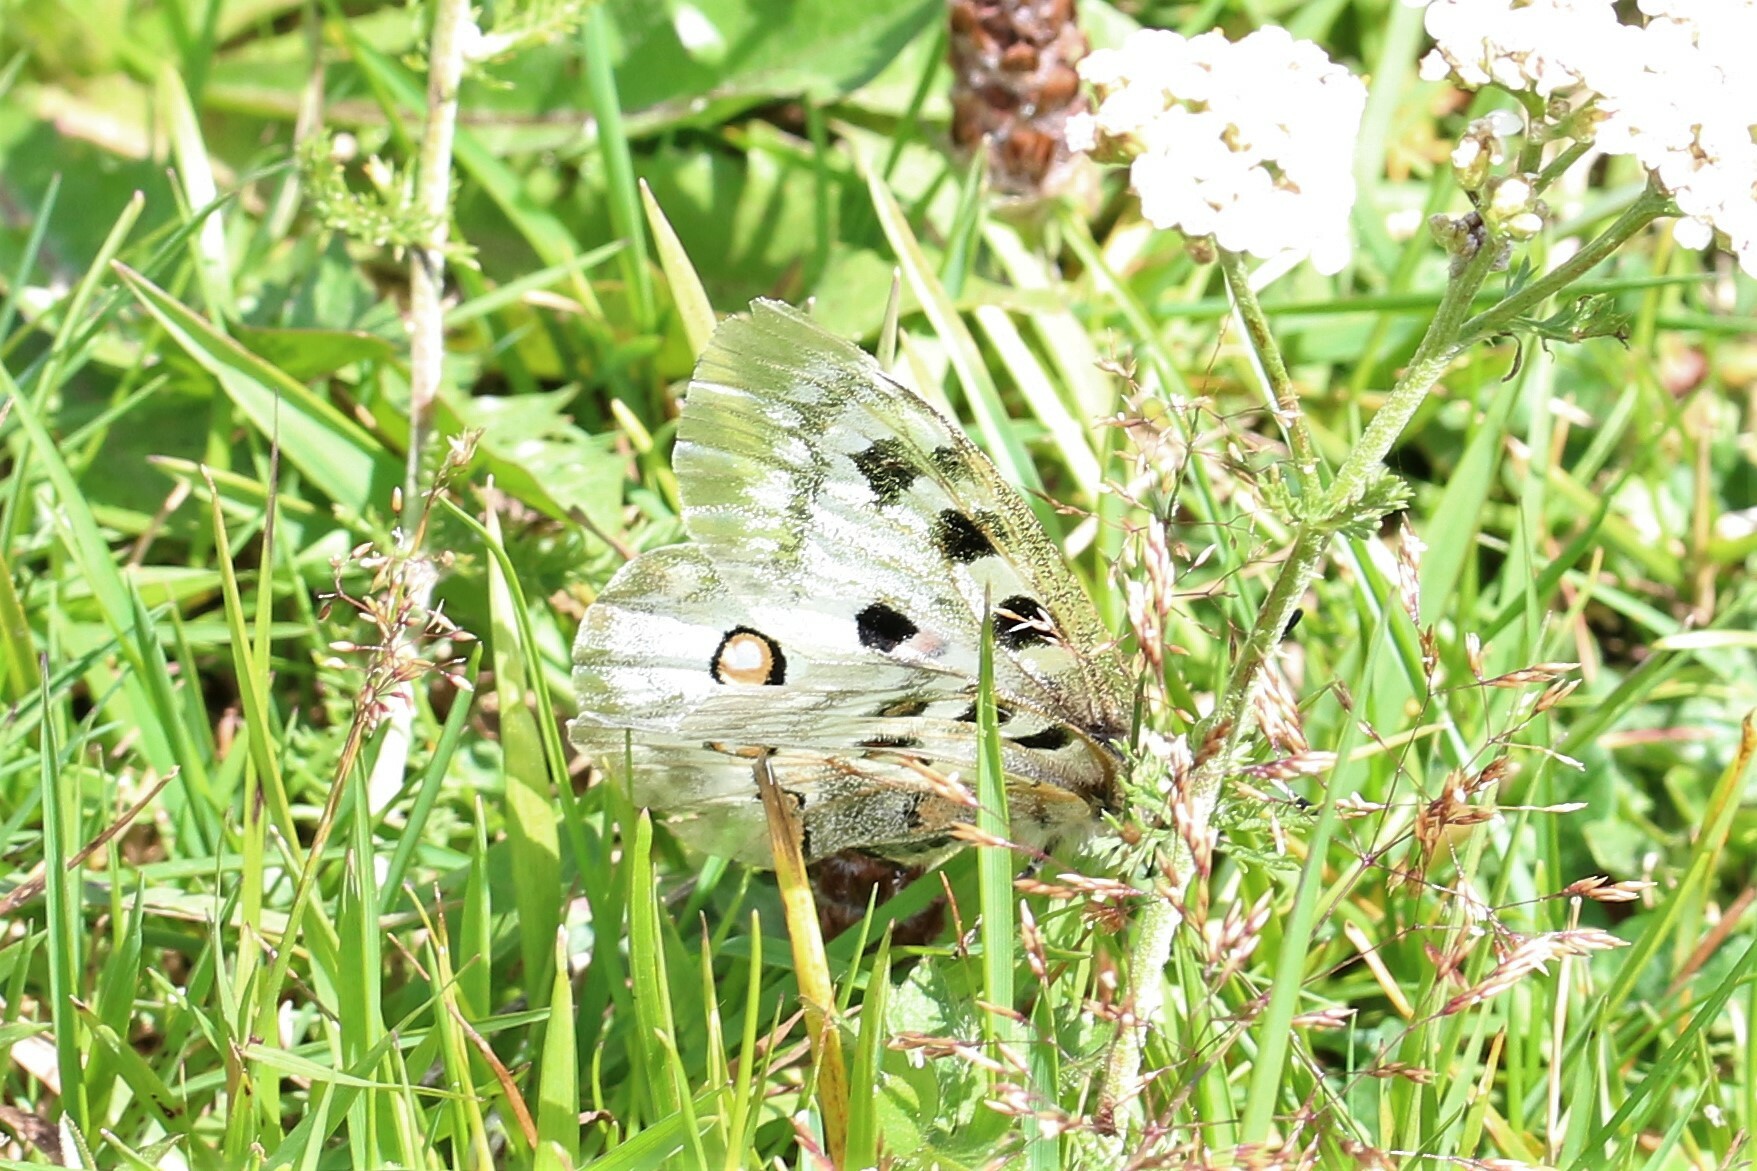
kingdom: Animalia
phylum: Arthropoda
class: Insecta
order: Lepidoptera
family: Papilionidae
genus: Parnassius
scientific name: Parnassius apollo
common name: Apollo
